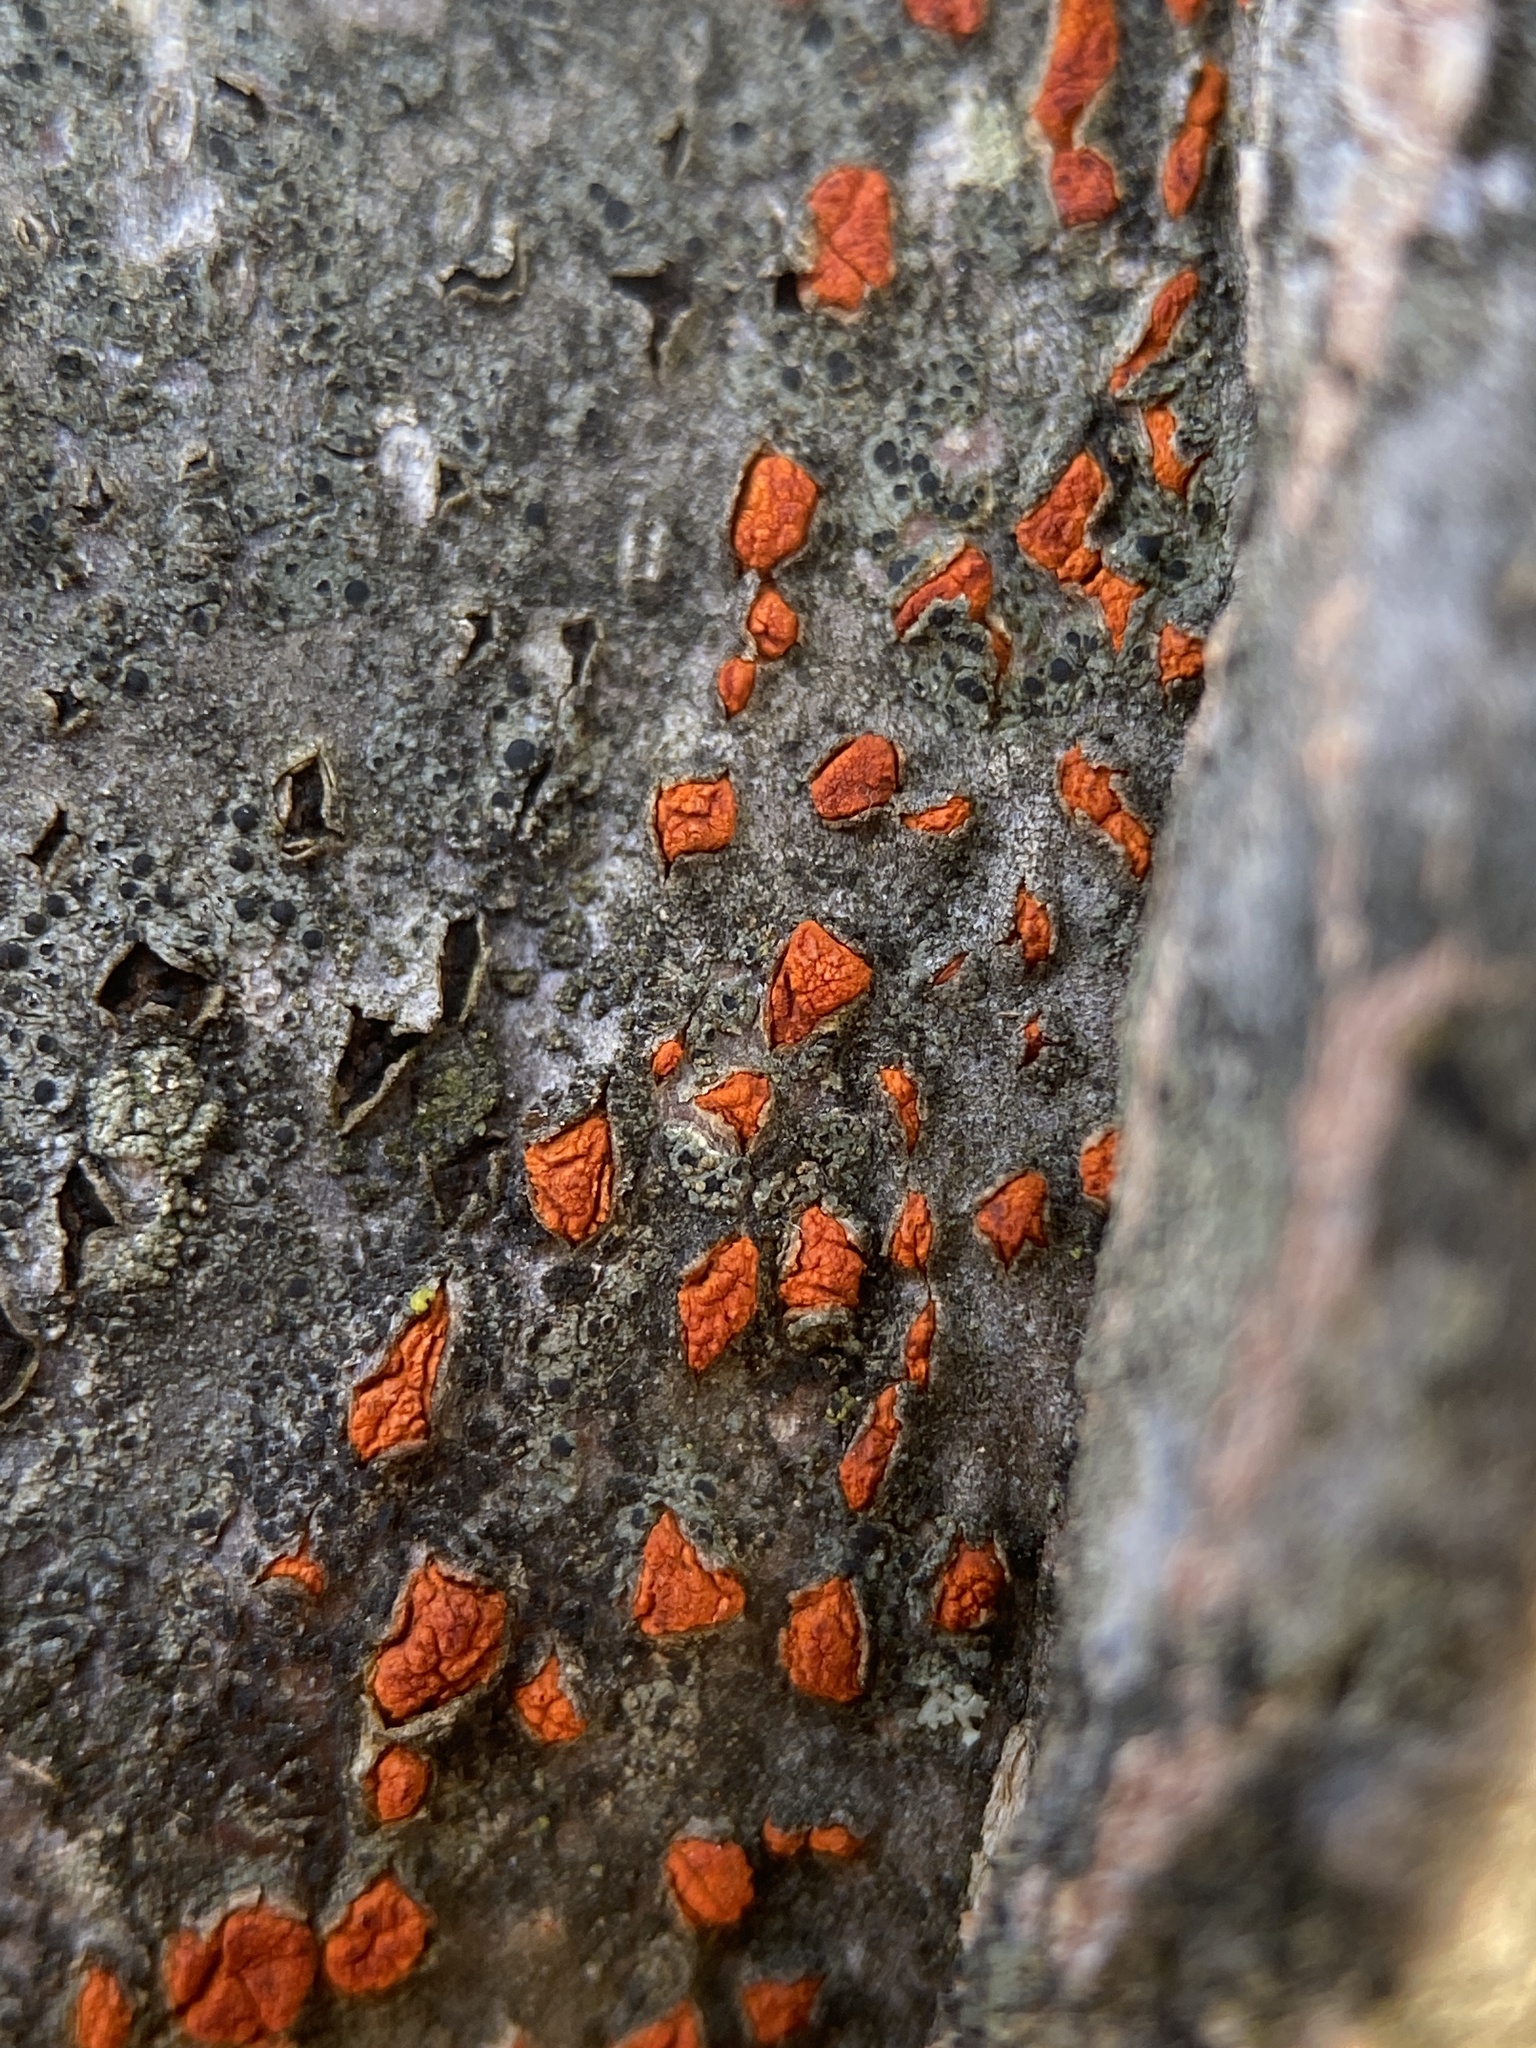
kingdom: Fungi
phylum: Ascomycota
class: Sordariomycetes
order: Diaporthales
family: Cryphonectriaceae
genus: Amphilogia
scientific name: Amphilogia gyrosa
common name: Orange hobnail canker
